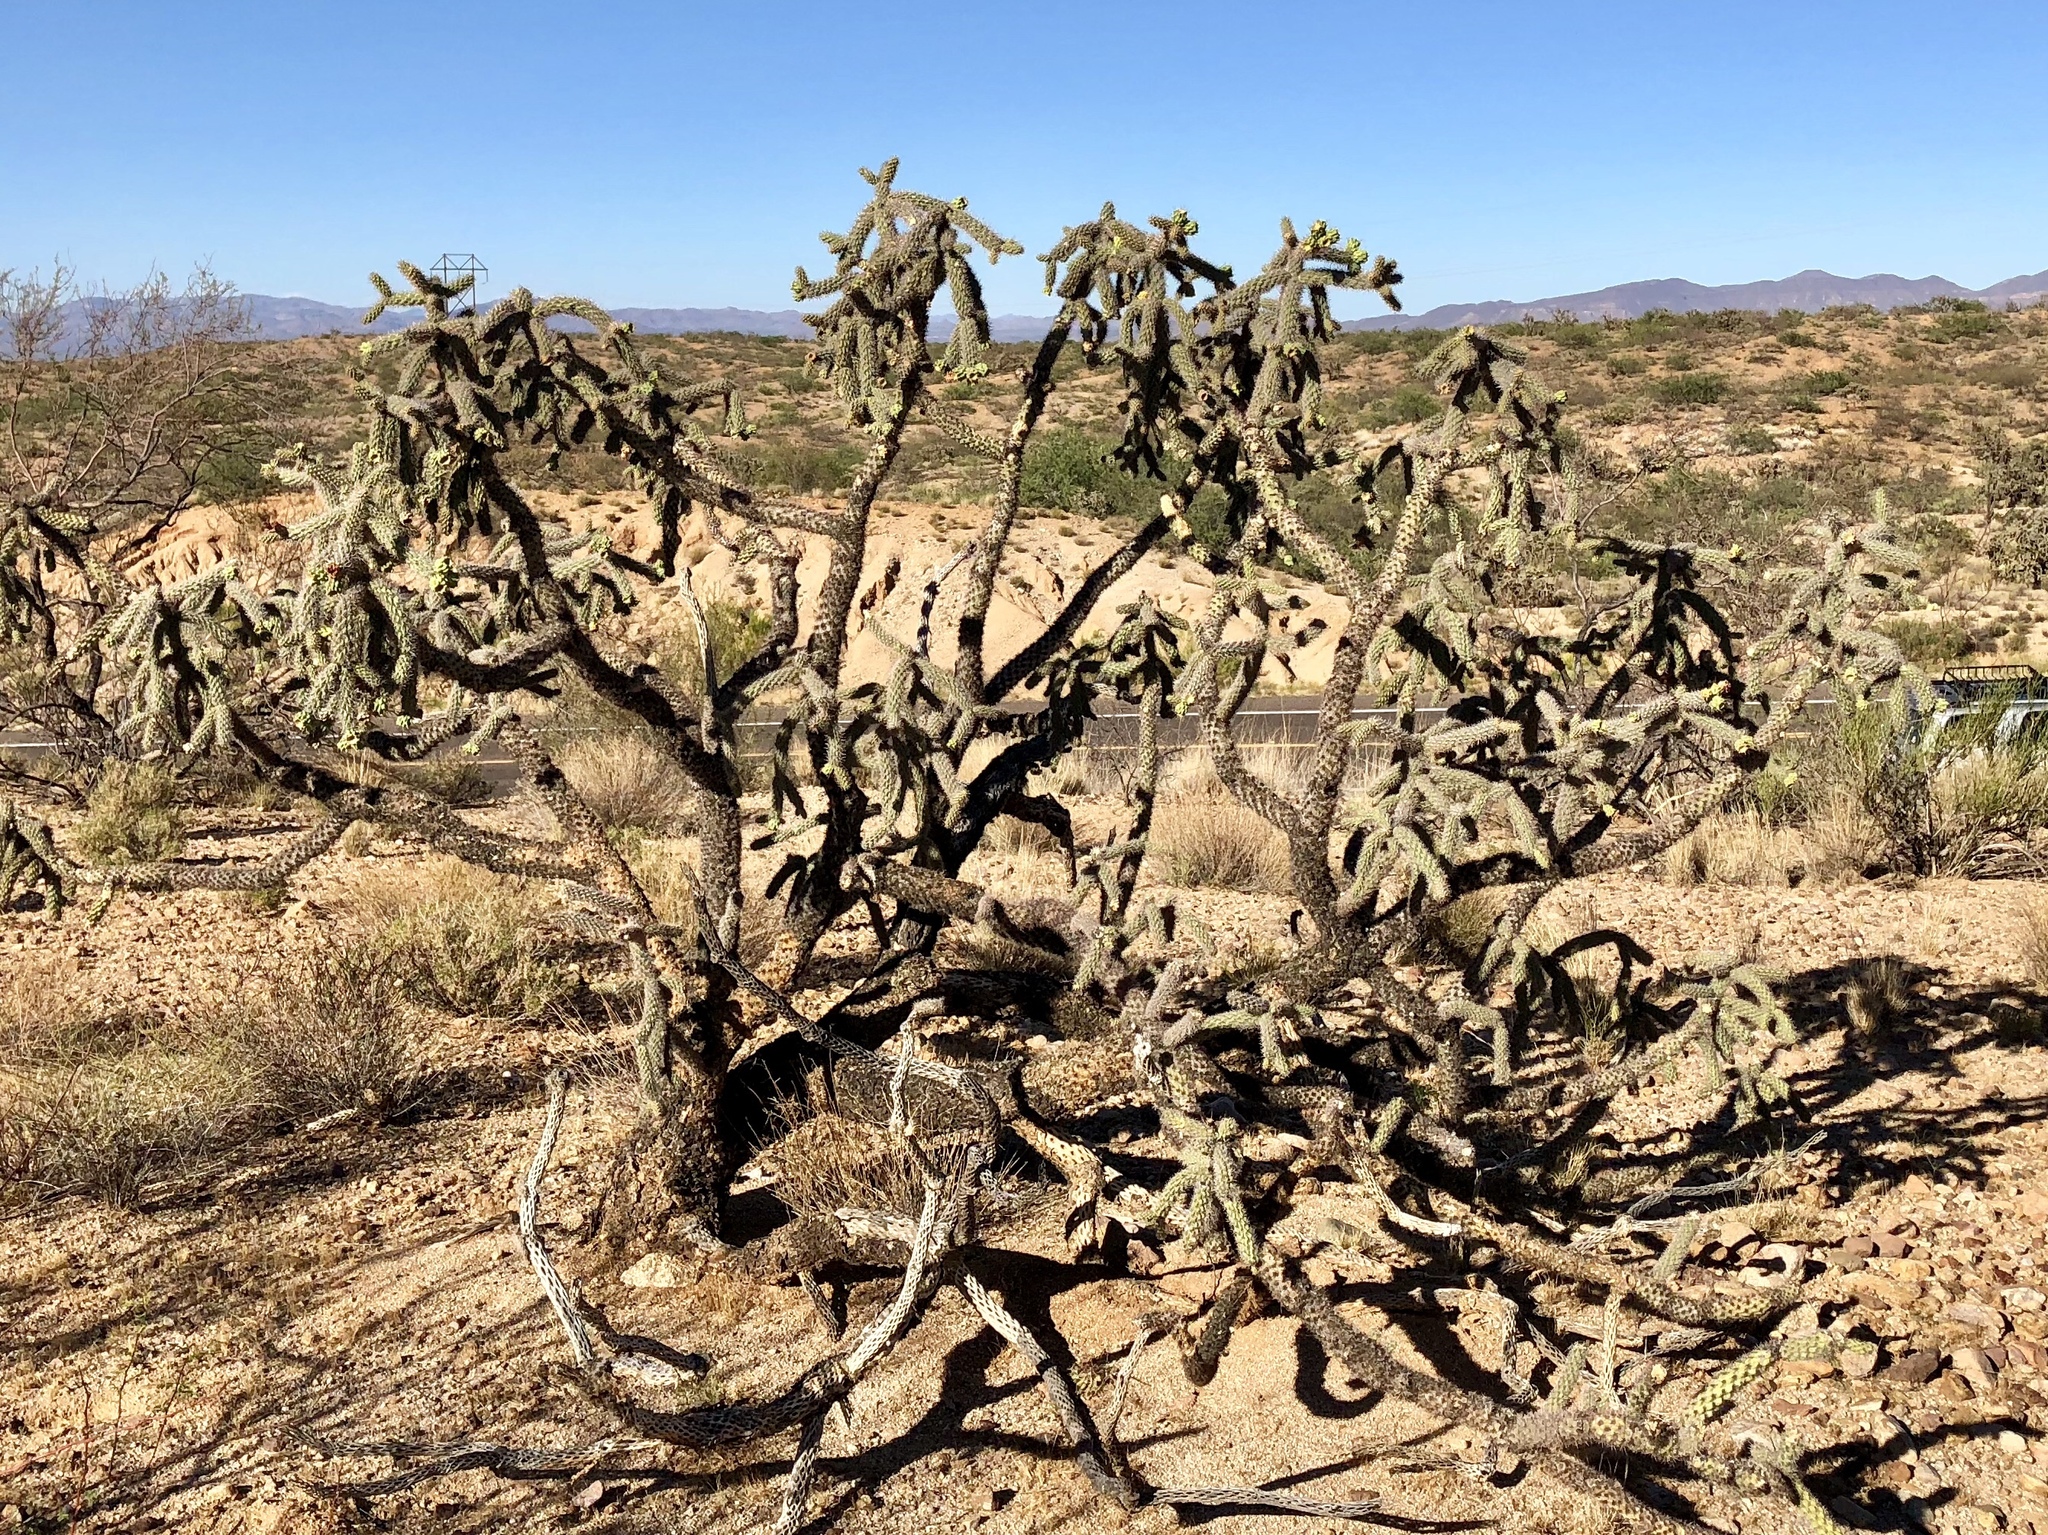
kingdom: Plantae
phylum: Tracheophyta
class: Magnoliopsida
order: Caryophyllales
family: Cactaceae
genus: Cylindropuntia
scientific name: Cylindropuntia imbricata
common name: Candelabrum cactus
